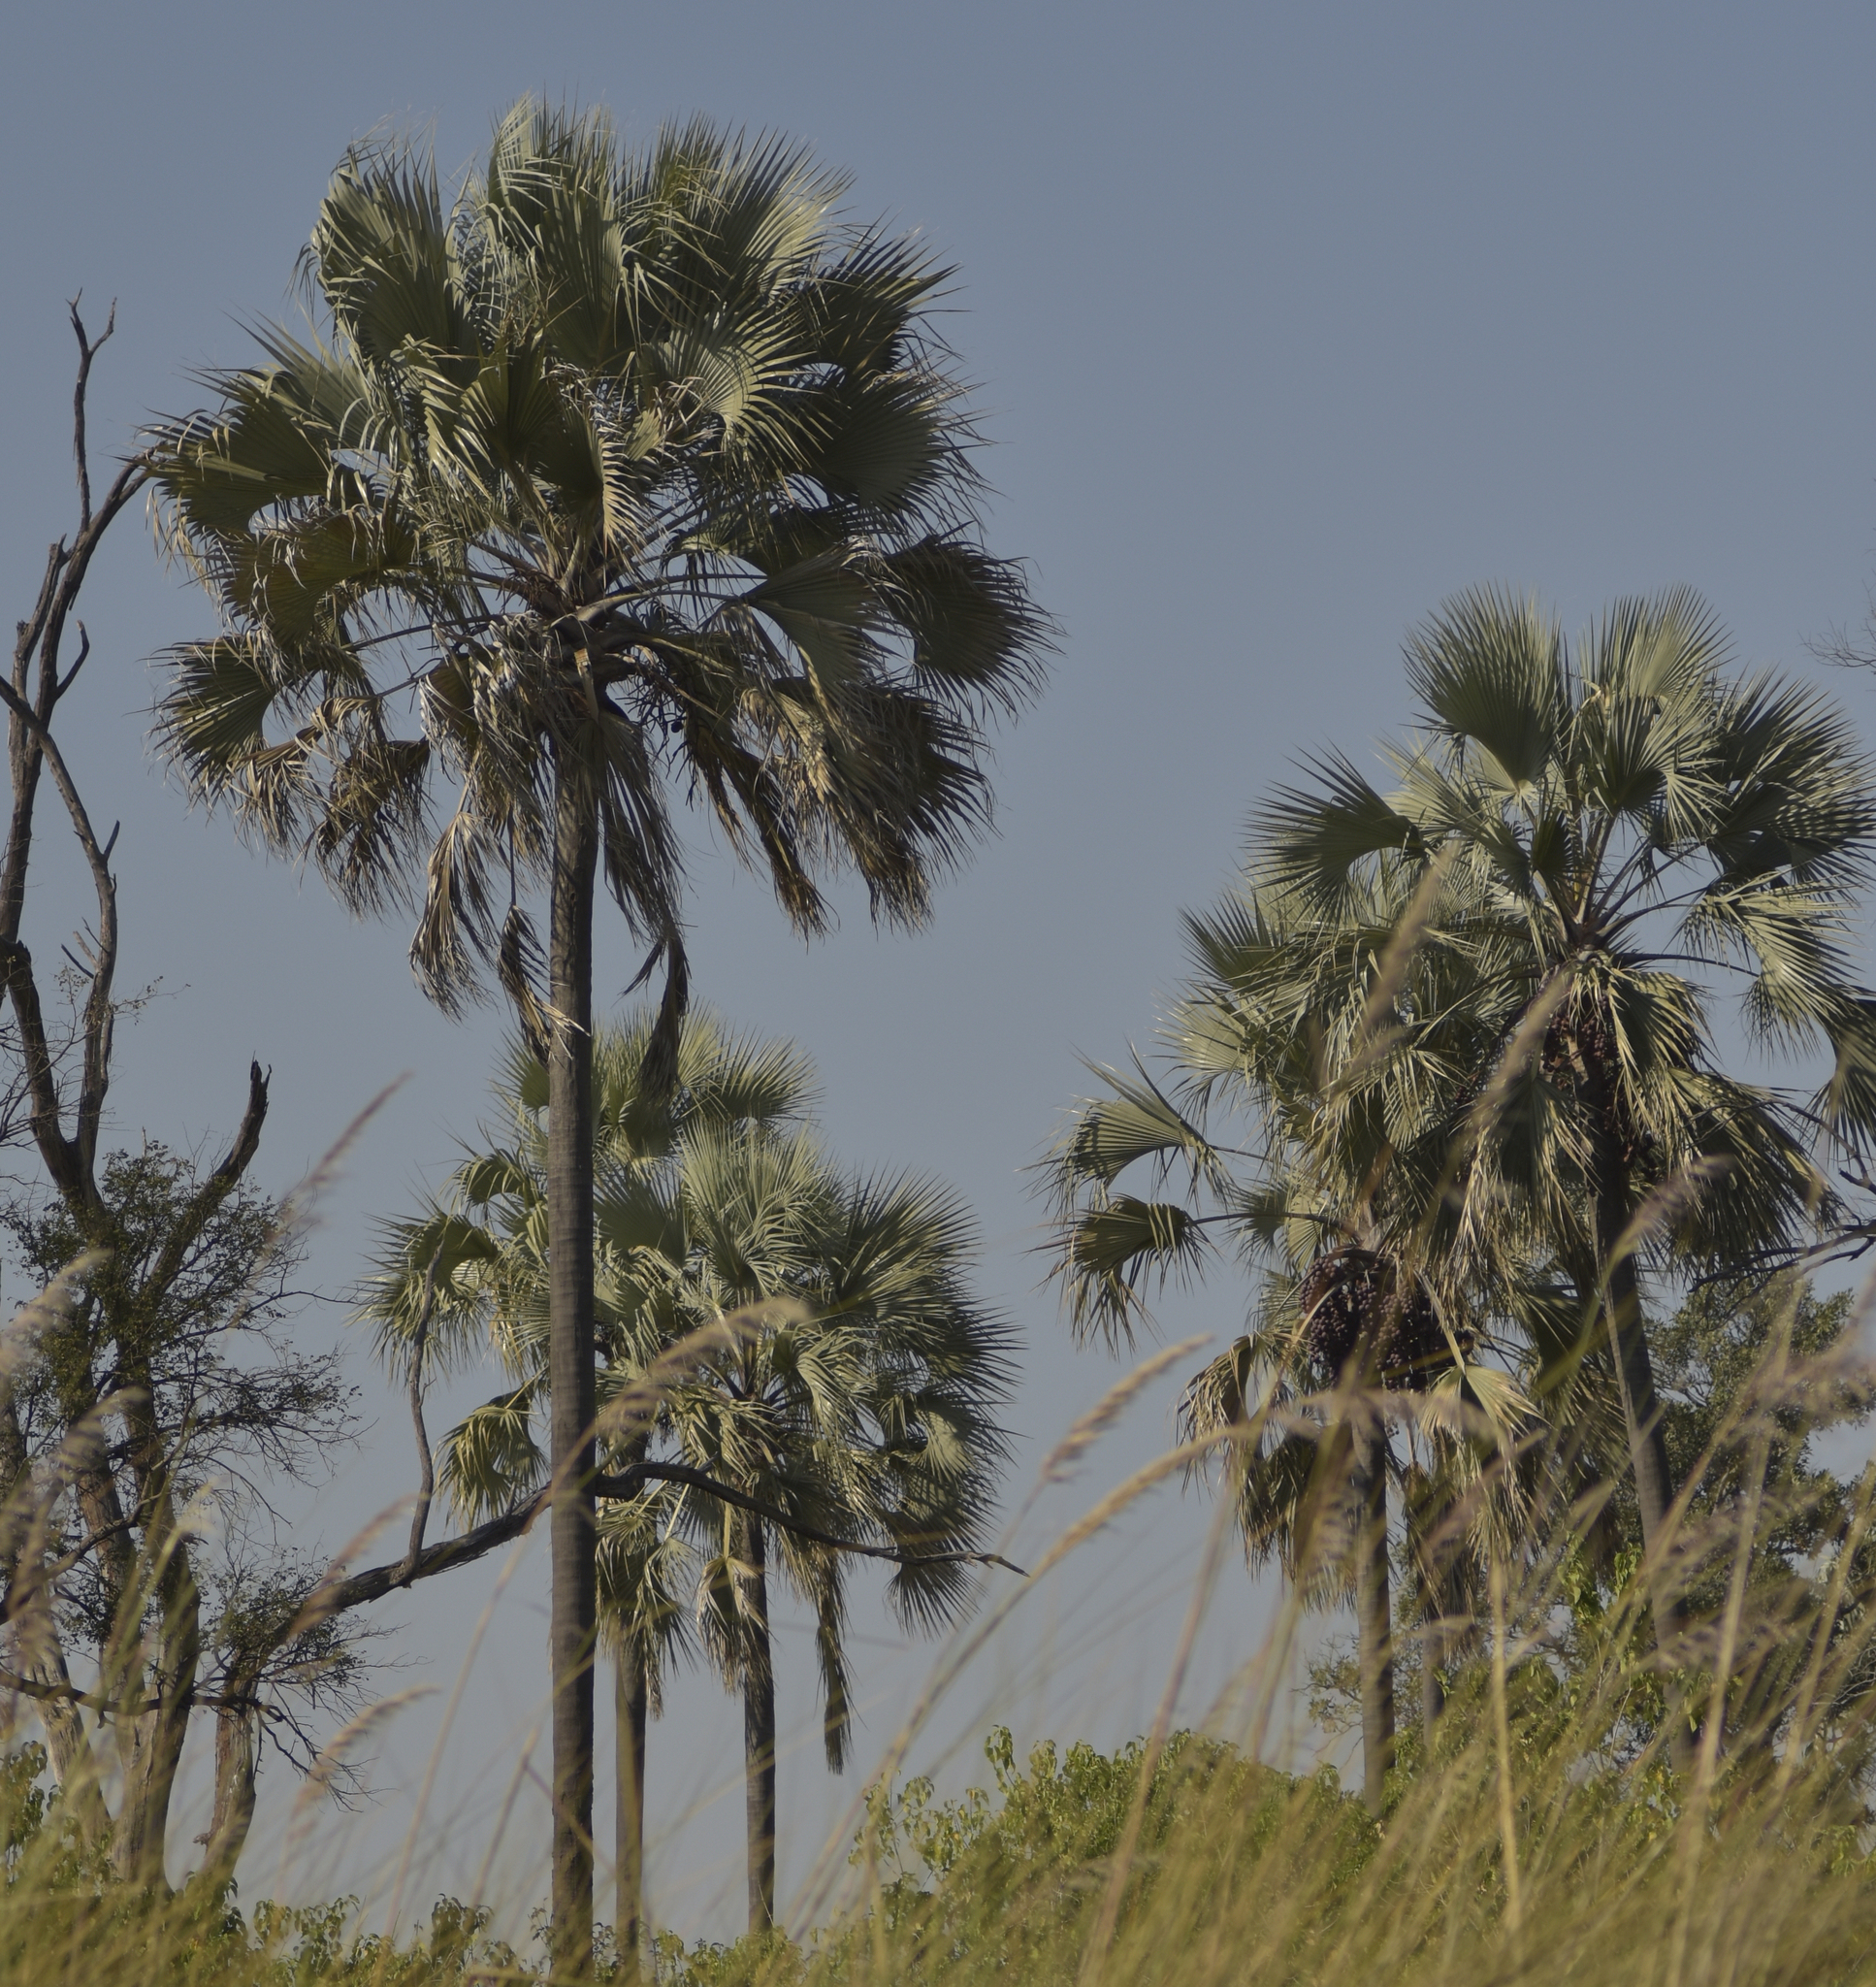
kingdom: Plantae
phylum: Tracheophyta
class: Liliopsida
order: Arecales
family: Arecaceae
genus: Hyphaene
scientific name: Hyphaene petersiana
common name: African ivory nut palm
